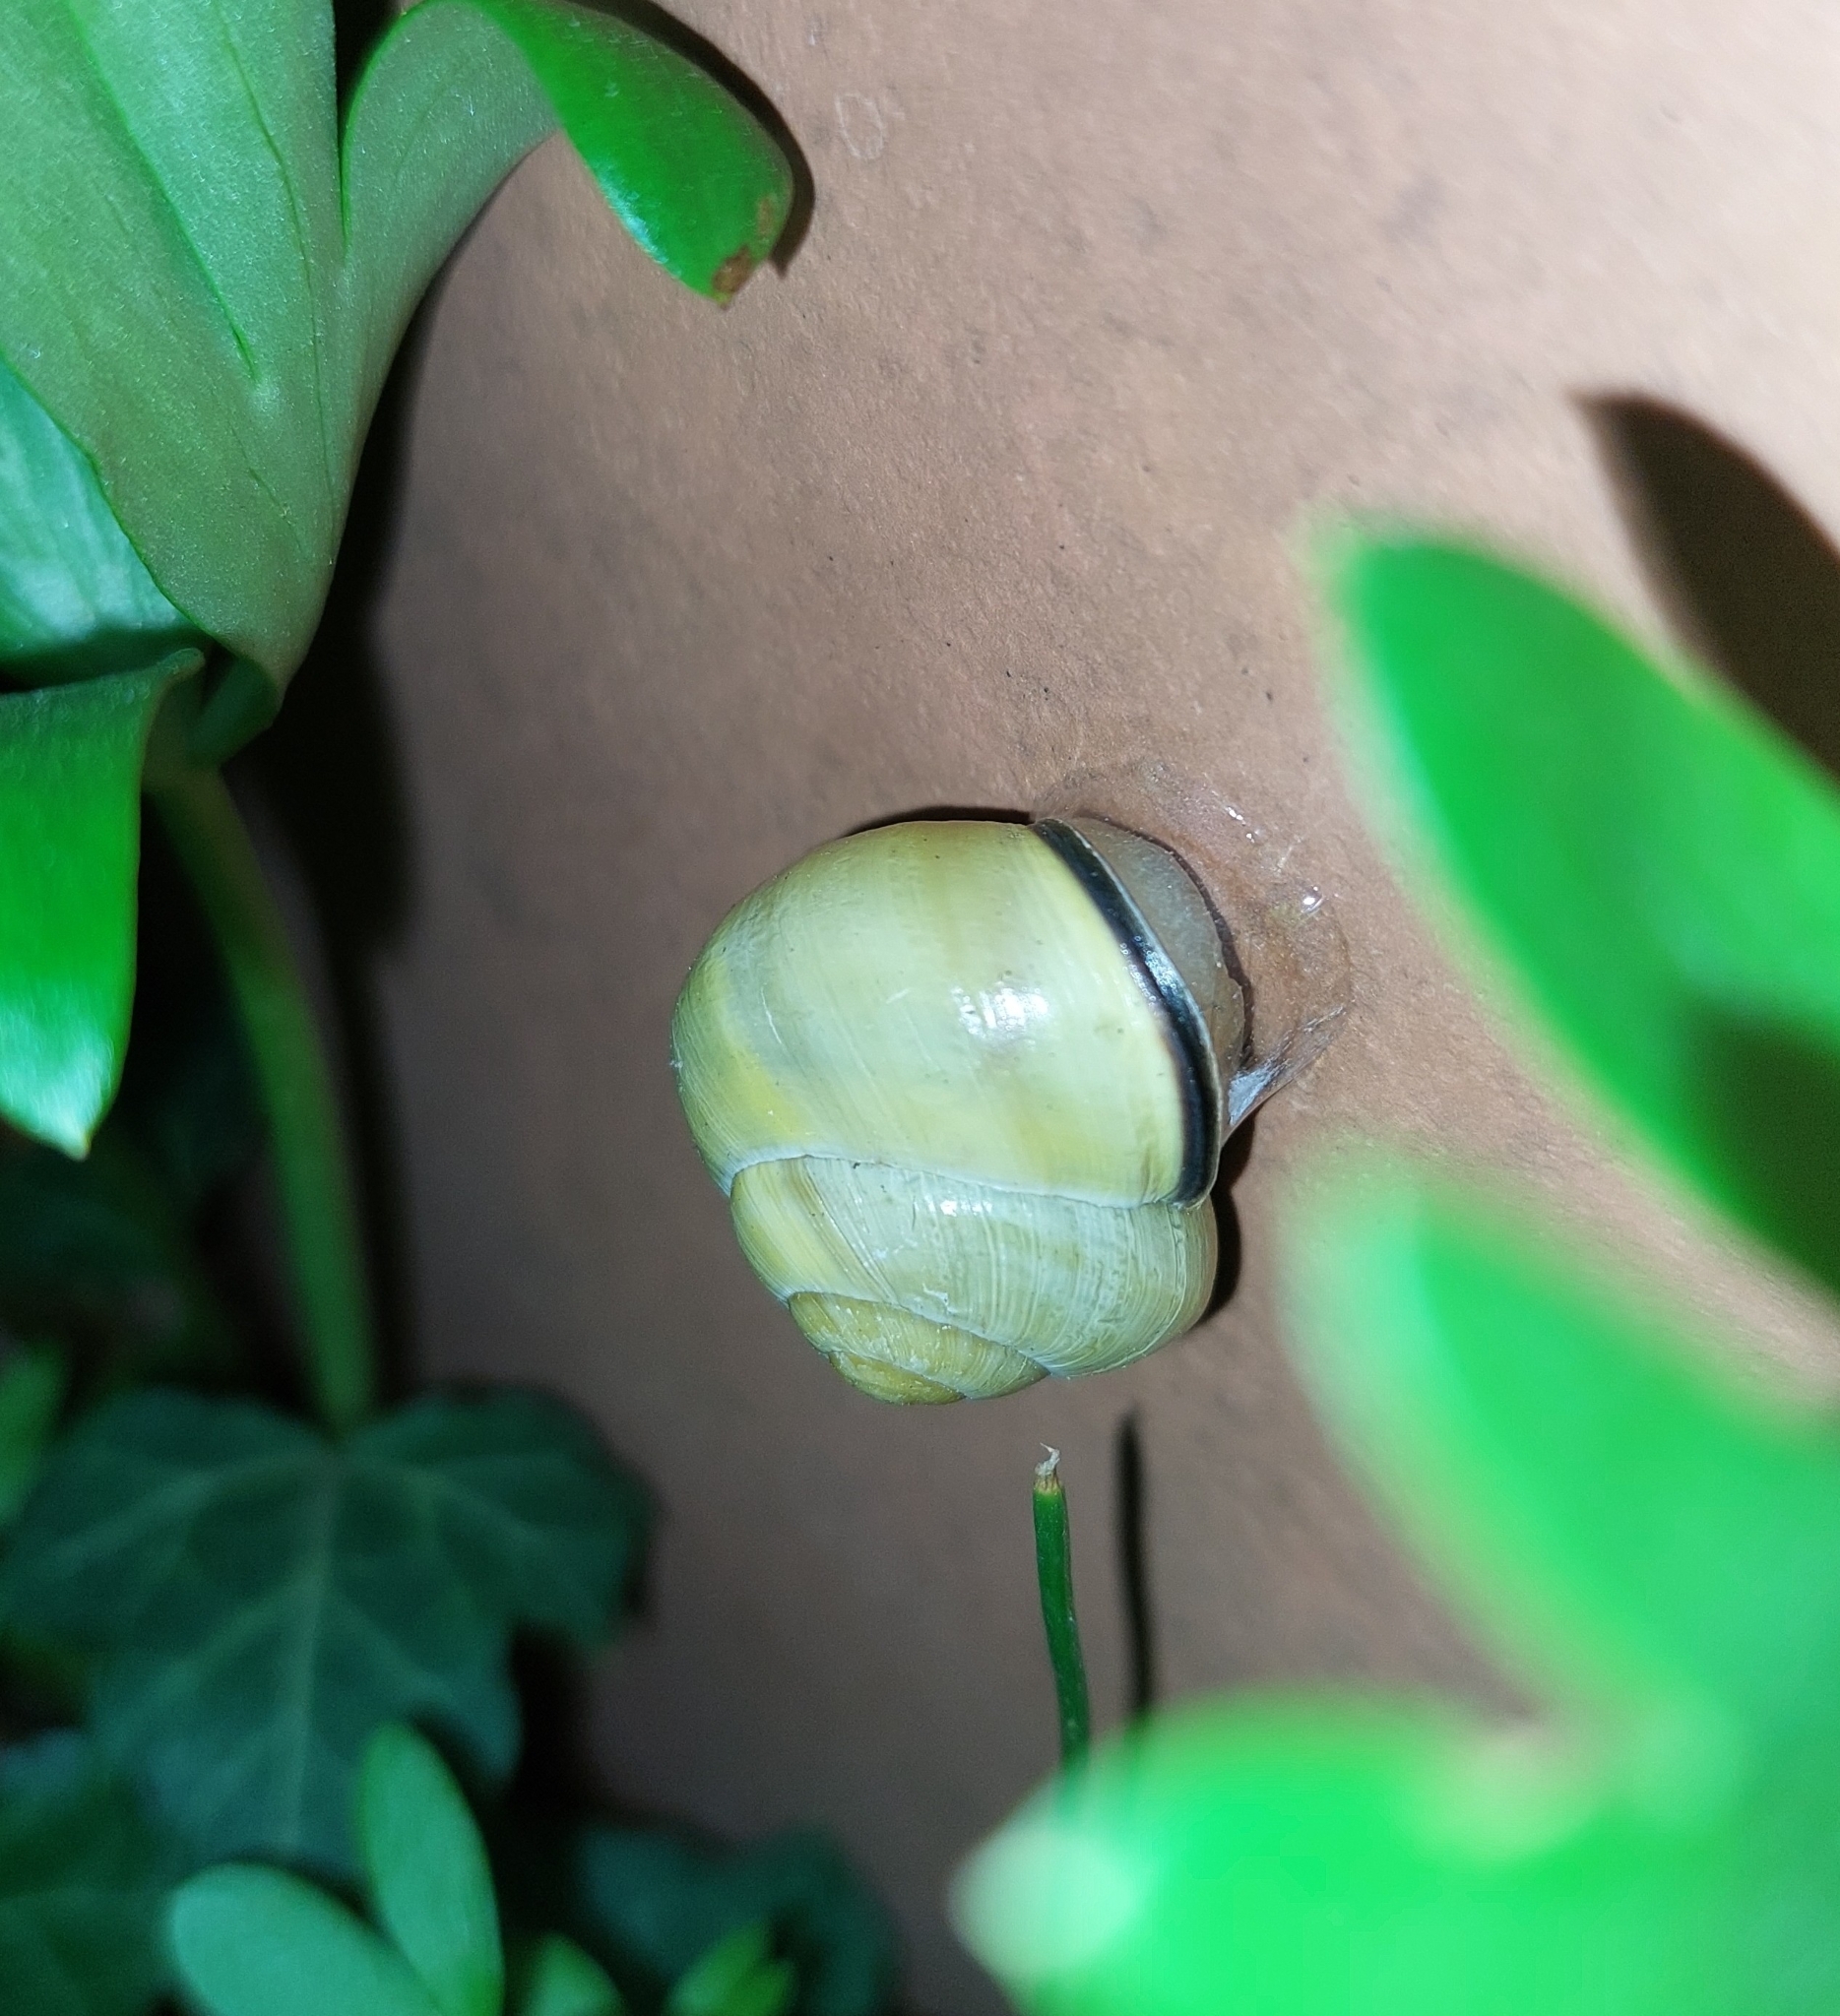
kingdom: Animalia
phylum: Mollusca
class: Gastropoda
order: Stylommatophora
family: Helicidae
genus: Cepaea
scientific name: Cepaea nemoralis
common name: Grovesnail
